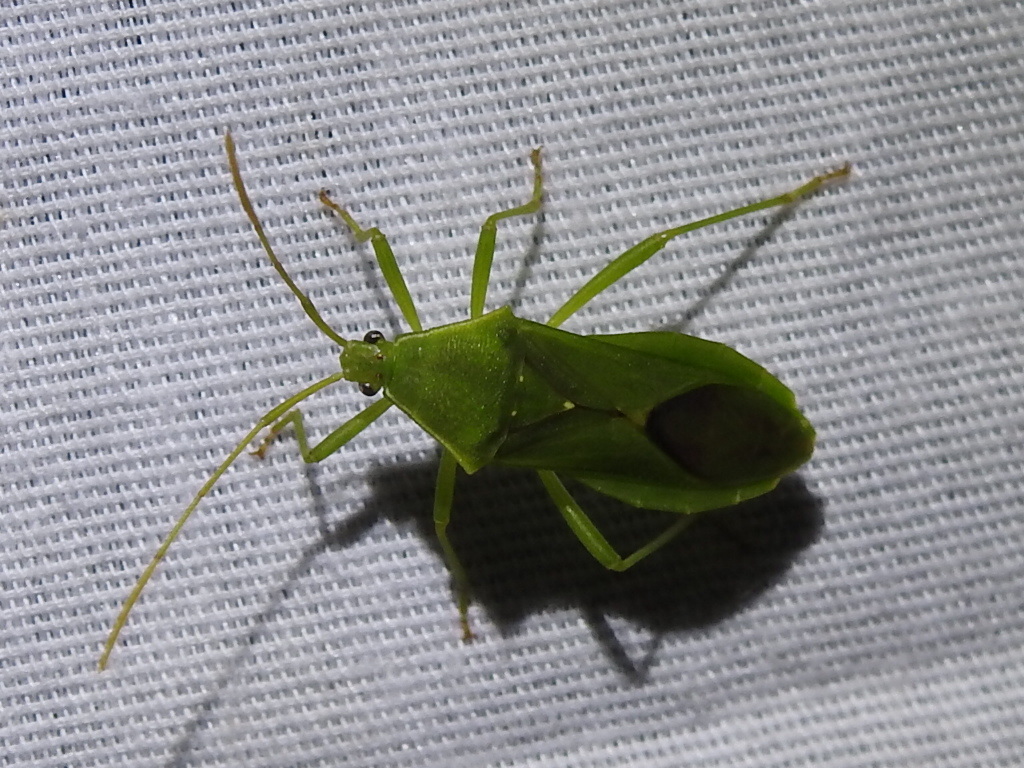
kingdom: Animalia
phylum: Arthropoda
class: Insecta
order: Hemiptera
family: Coreidae
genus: Savius
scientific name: Savius jurgiosus
